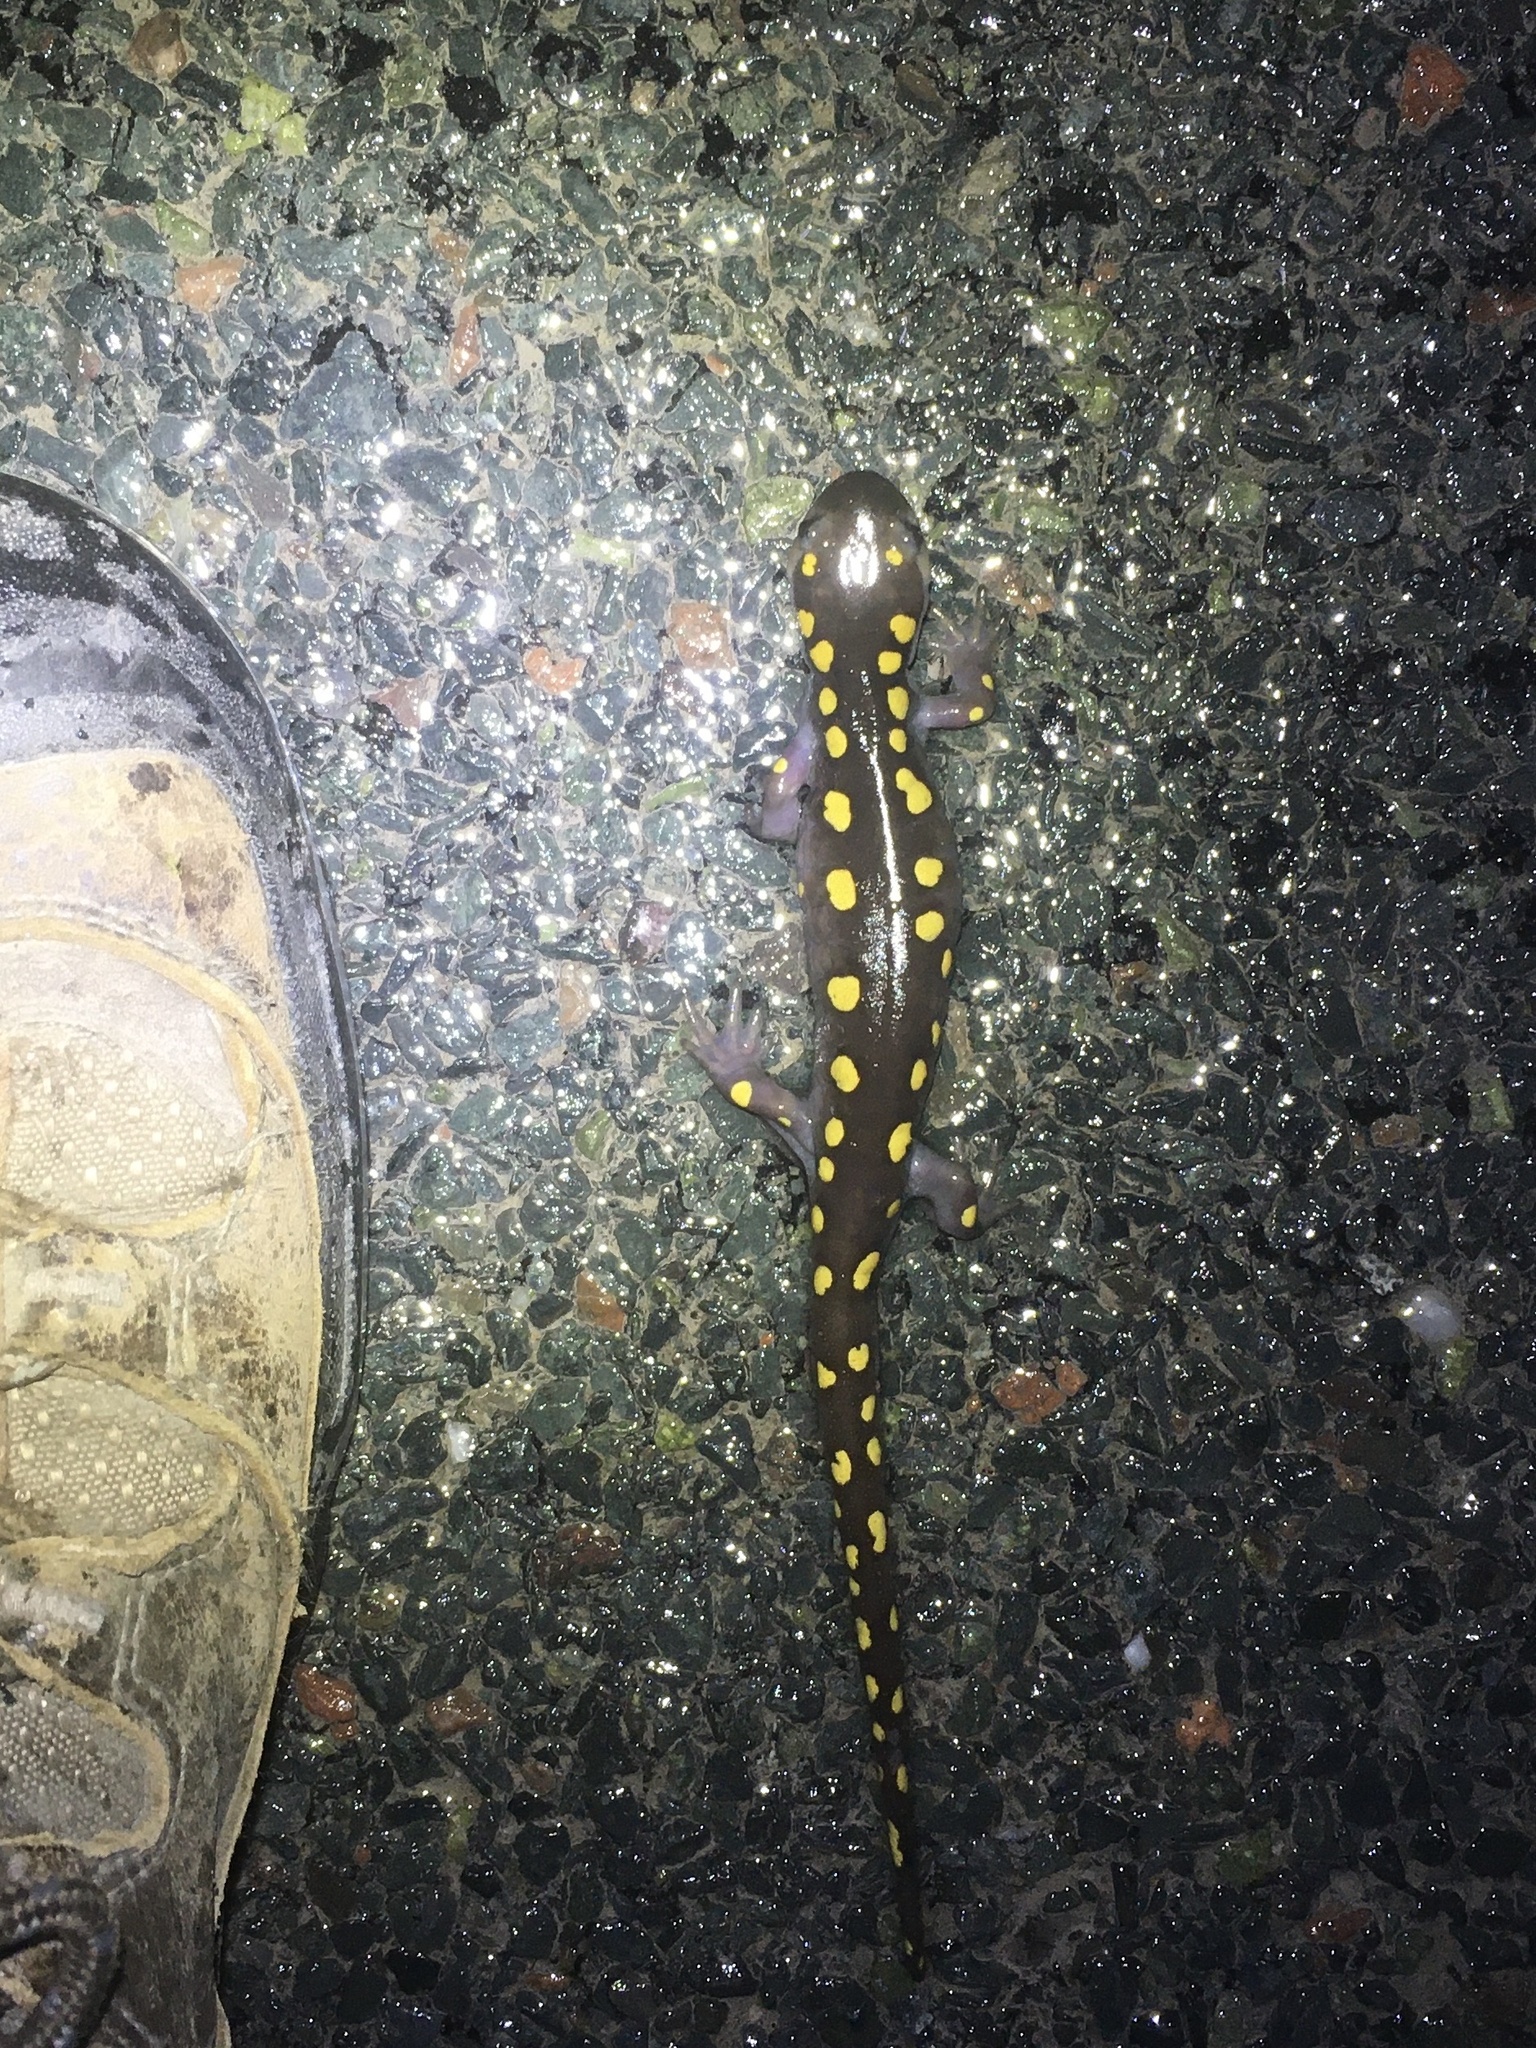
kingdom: Animalia
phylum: Chordata
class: Amphibia
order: Caudata
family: Ambystomatidae
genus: Ambystoma
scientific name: Ambystoma maculatum
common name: Spotted salamander
